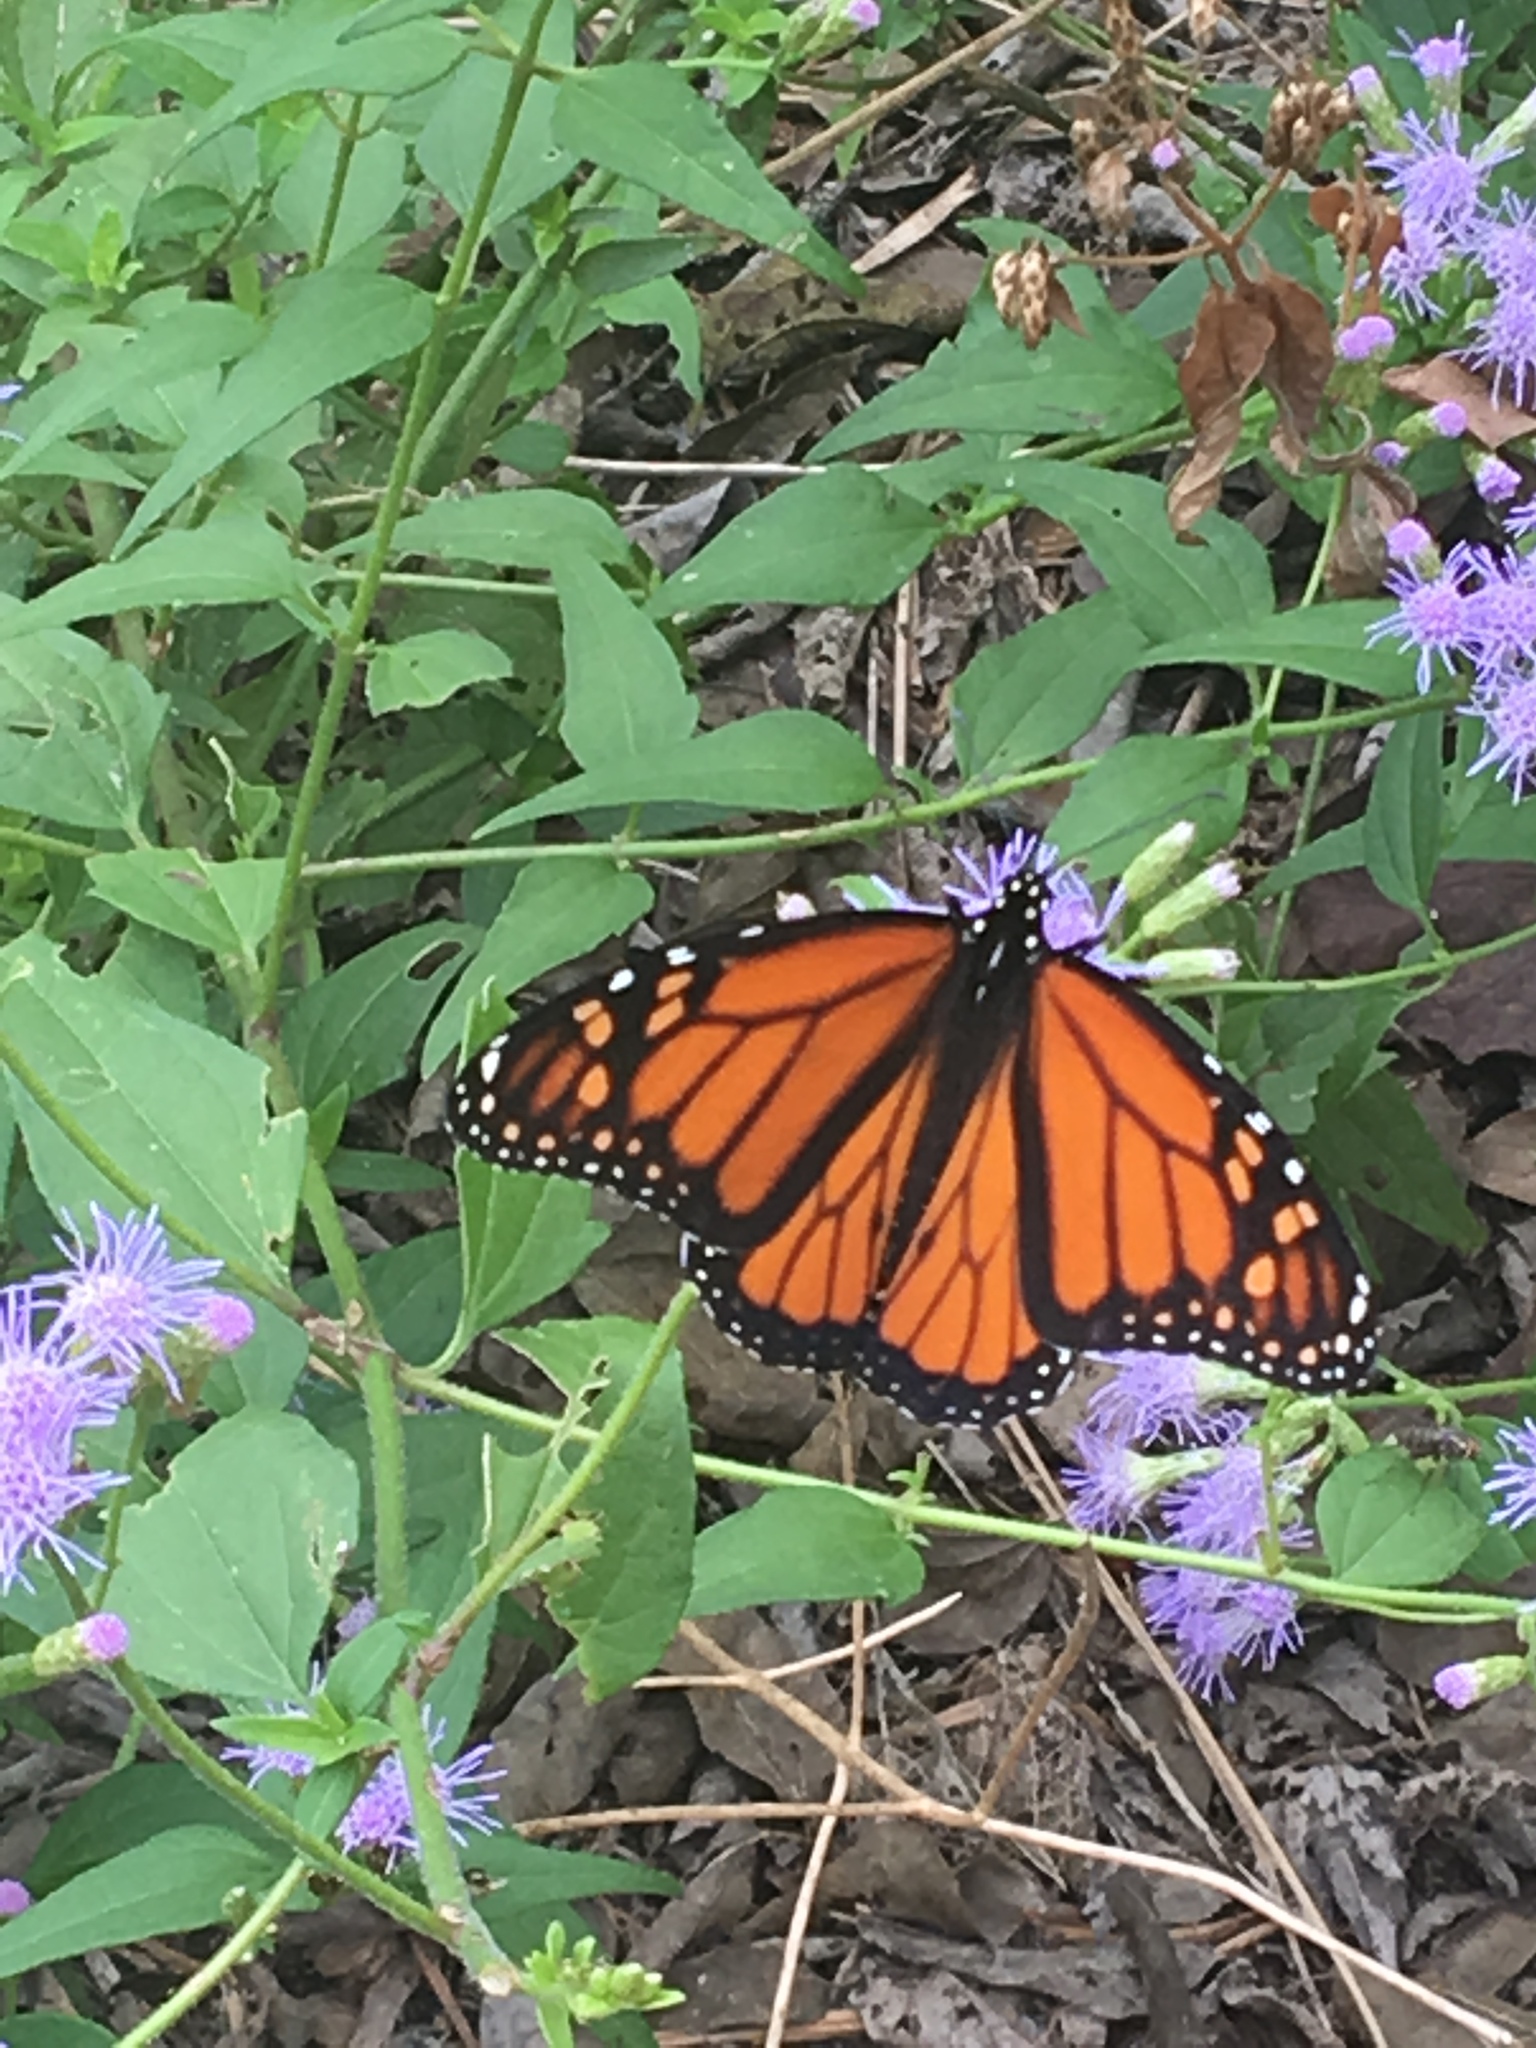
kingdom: Animalia
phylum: Arthropoda
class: Insecta
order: Lepidoptera
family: Nymphalidae
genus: Danaus
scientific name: Danaus plexippus
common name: Monarch
